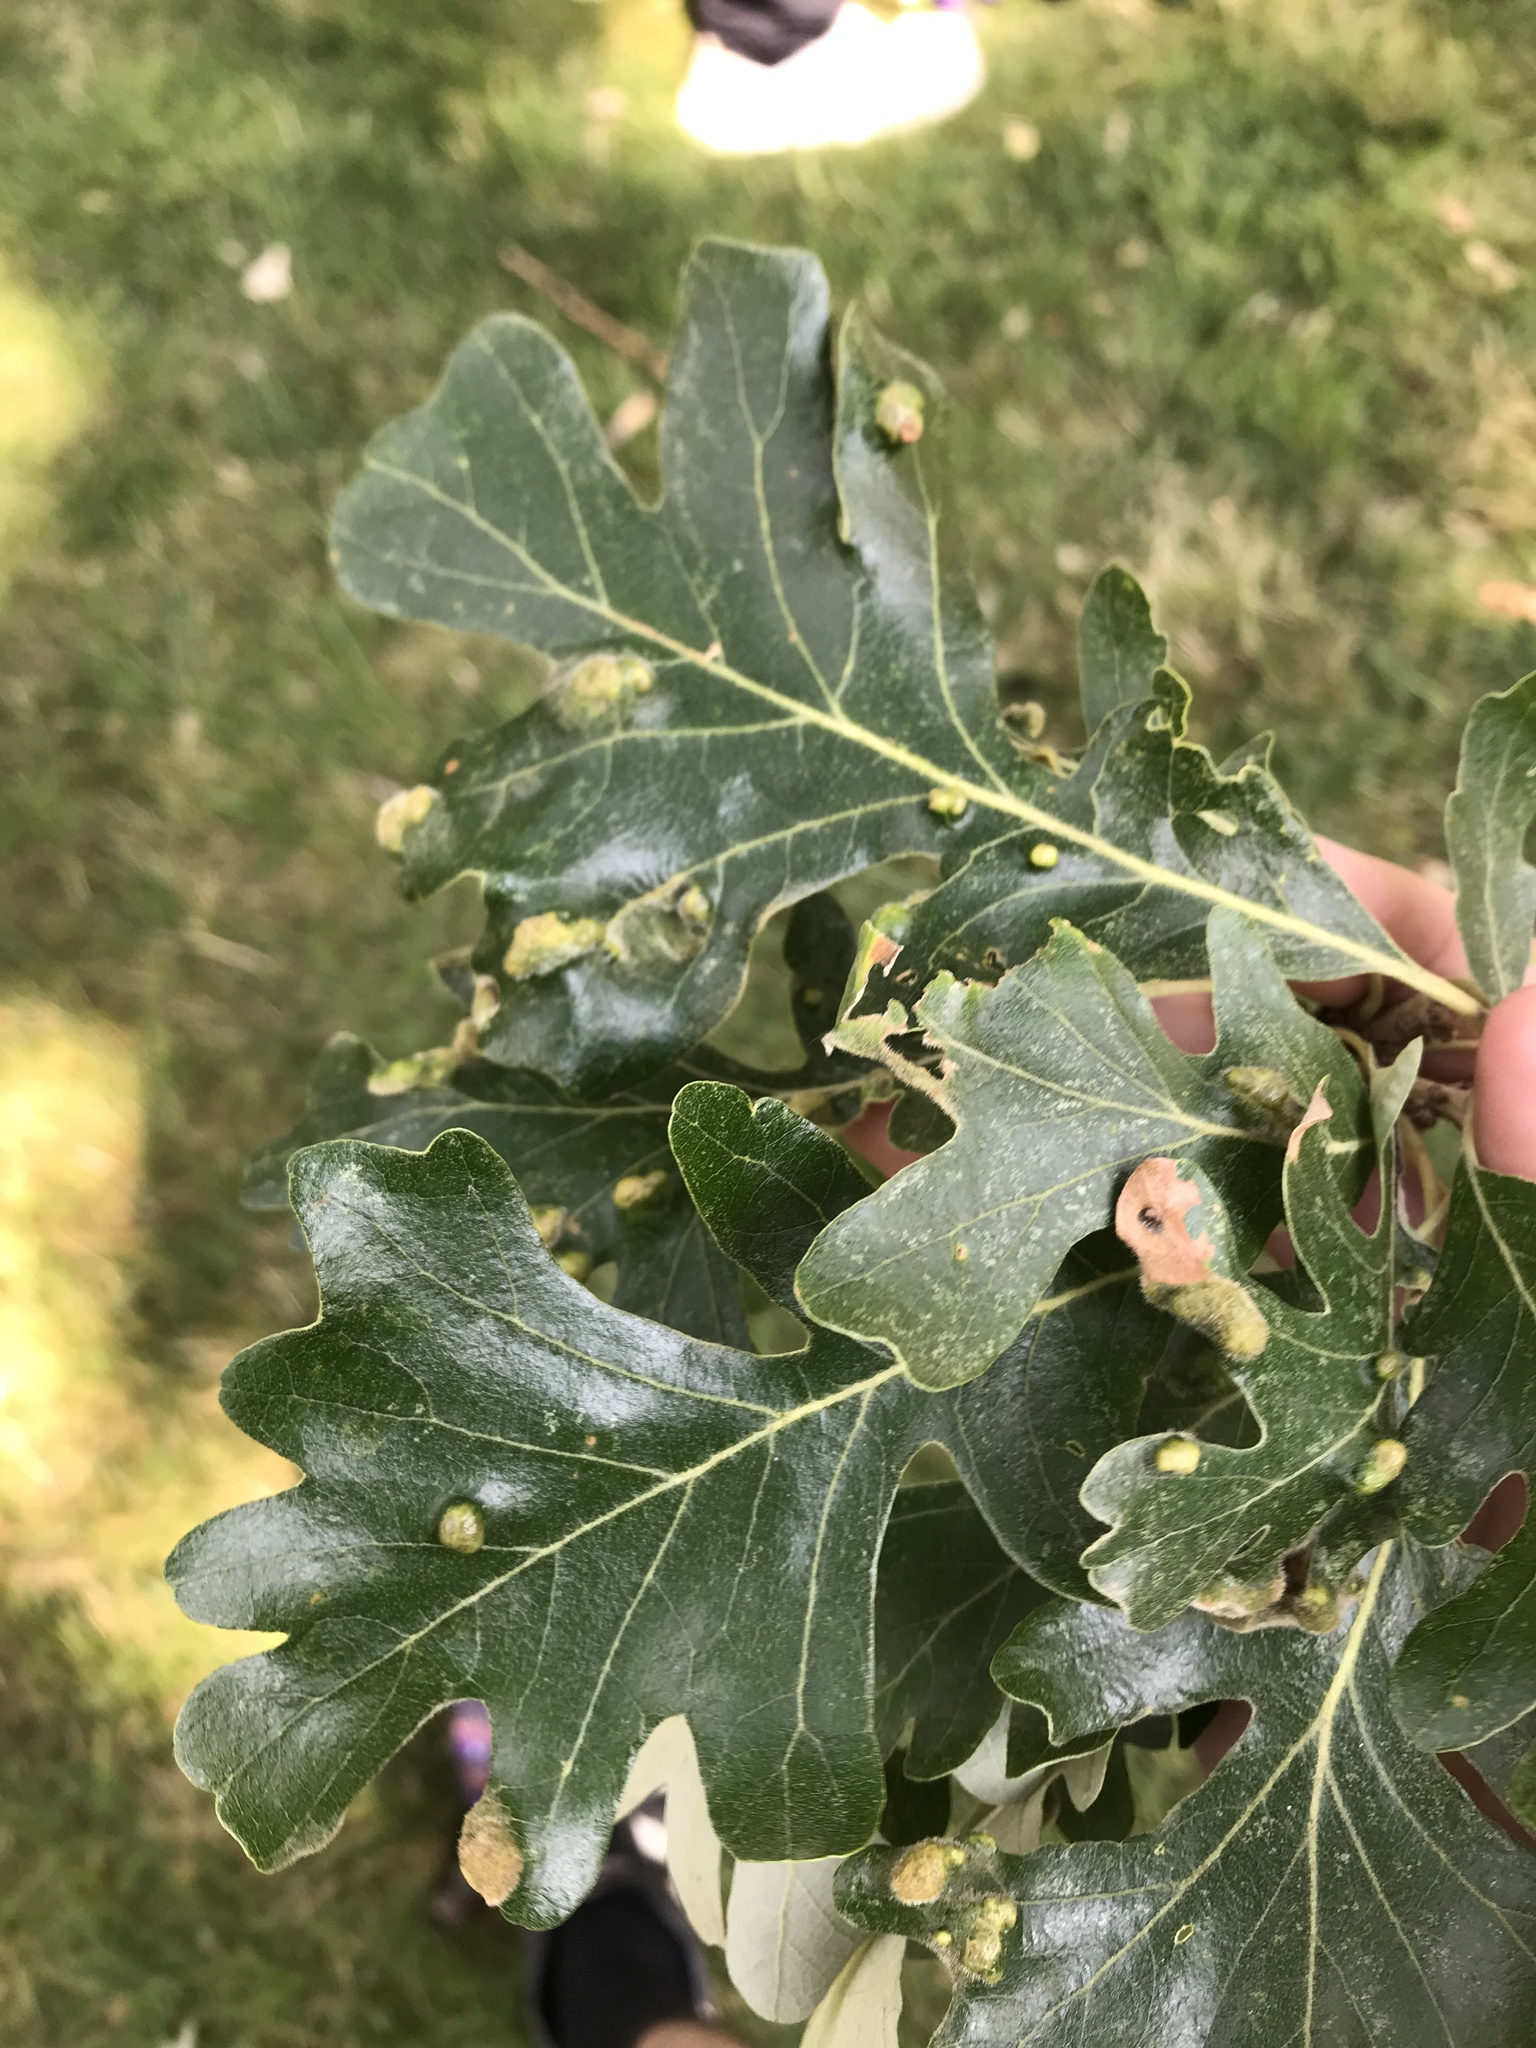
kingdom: Animalia
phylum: Arthropoda
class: Arachnida
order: Trombidiformes
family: Eriophyidae
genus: Aceria
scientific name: Aceria quercina
